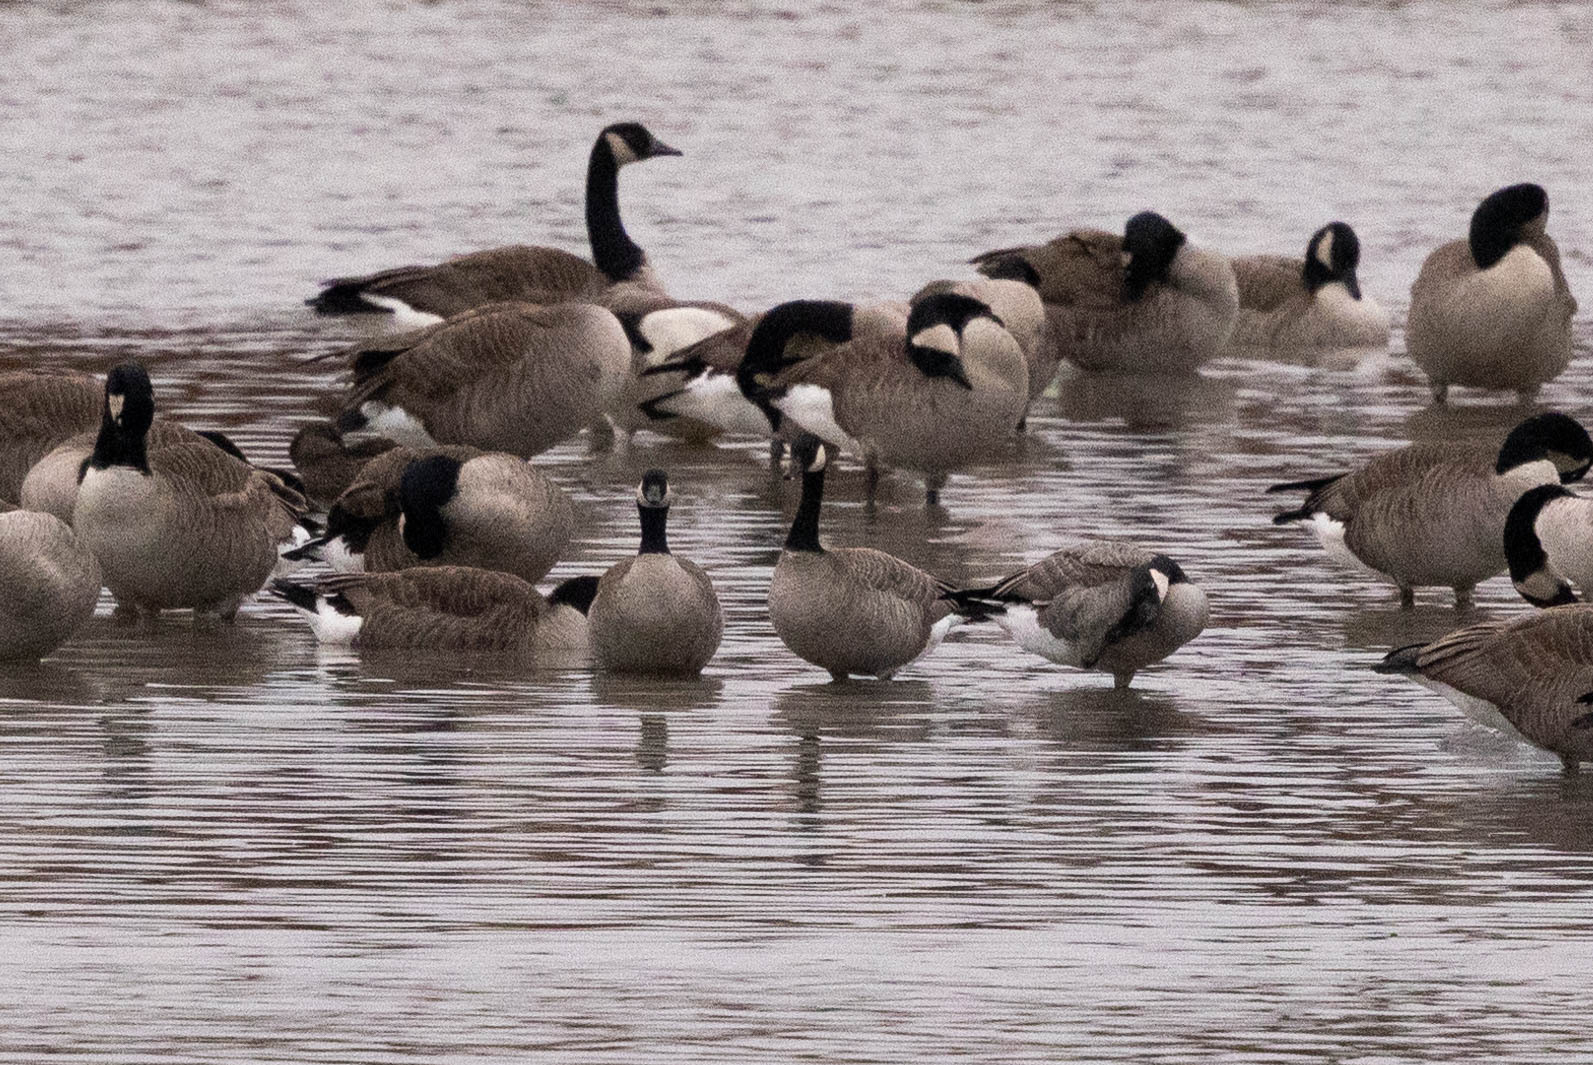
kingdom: Animalia
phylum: Chordata
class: Aves
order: Anseriformes
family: Anatidae
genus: Branta
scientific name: Branta hutchinsii
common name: Cackling goose
